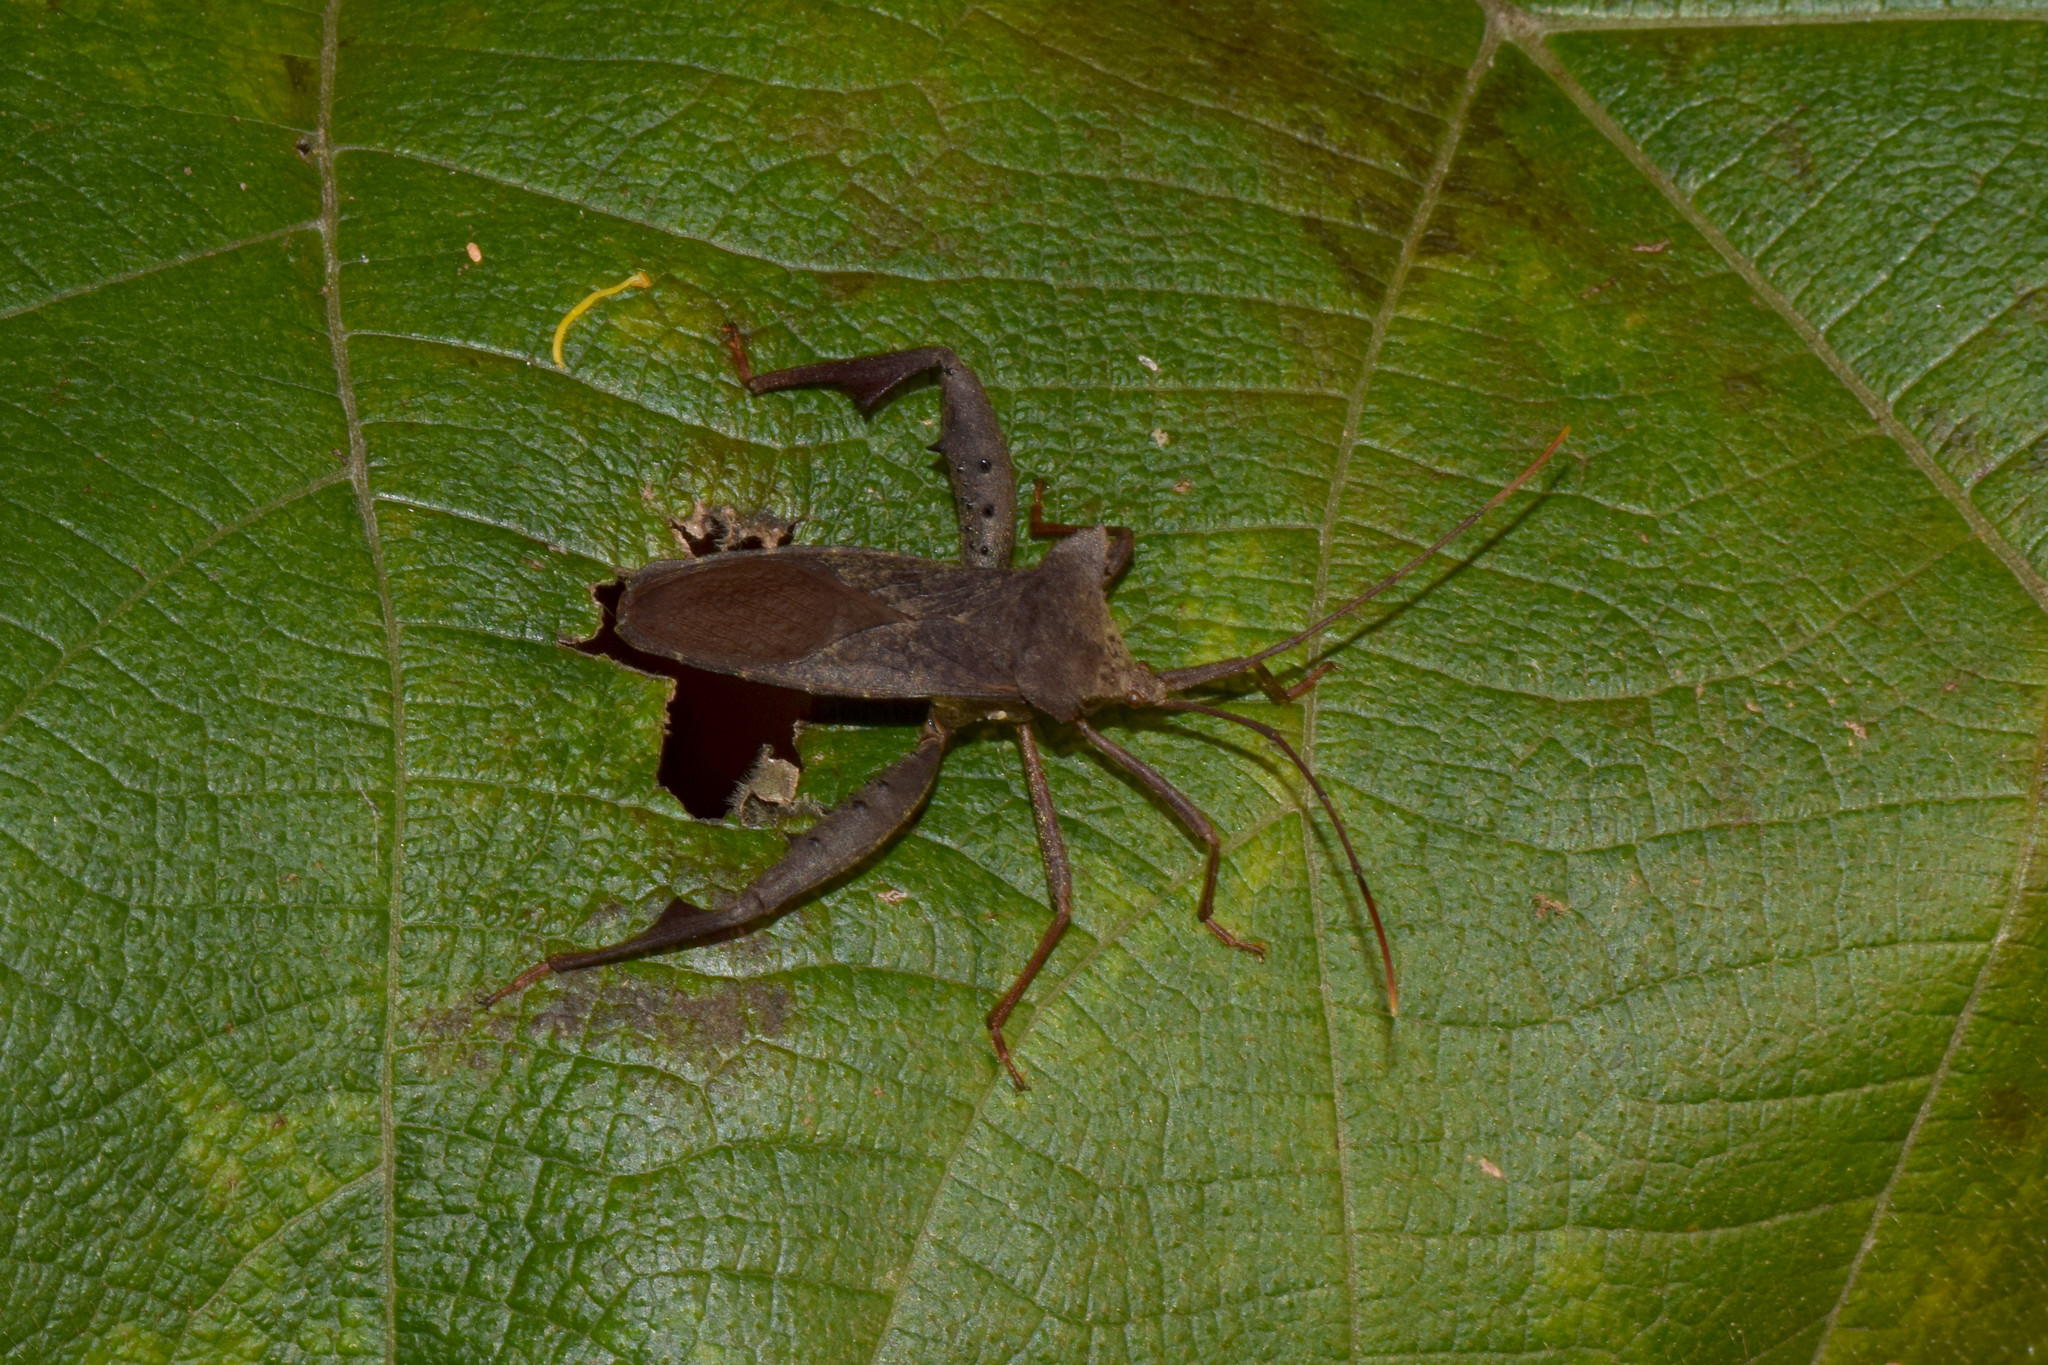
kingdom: Animalia
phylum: Arthropoda
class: Insecta
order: Hemiptera
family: Coreidae
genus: Rhamnomia
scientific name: Rhamnomia dubia
